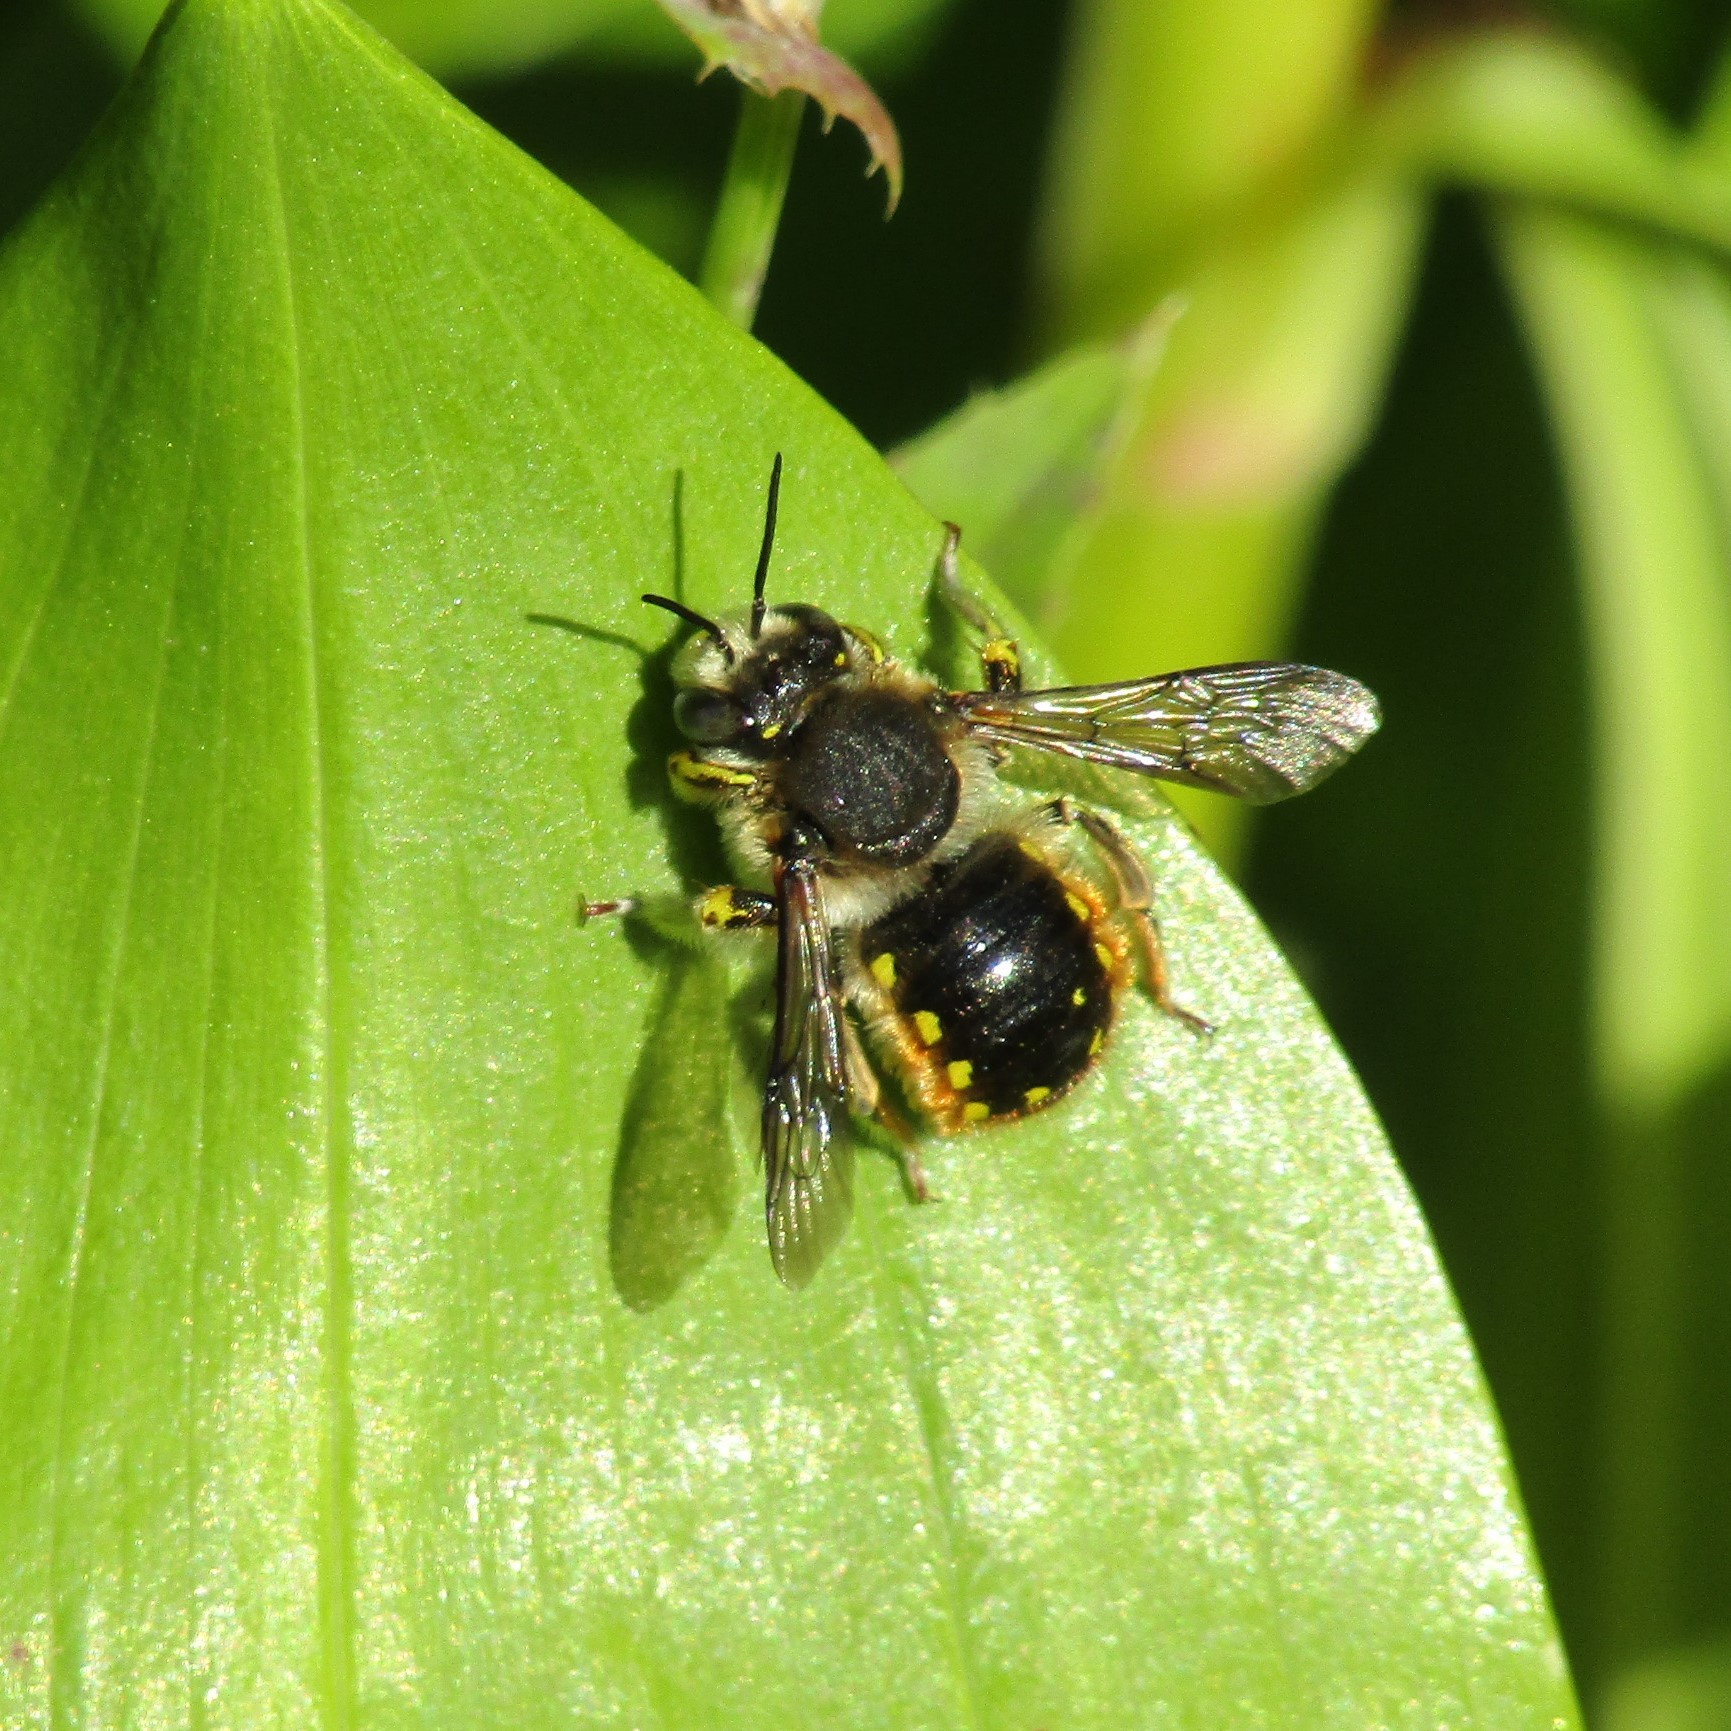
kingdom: Animalia
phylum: Arthropoda
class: Insecta
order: Hymenoptera
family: Megachilidae
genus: Anthidium
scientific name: Anthidium manicatum
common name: Wool carder bee
